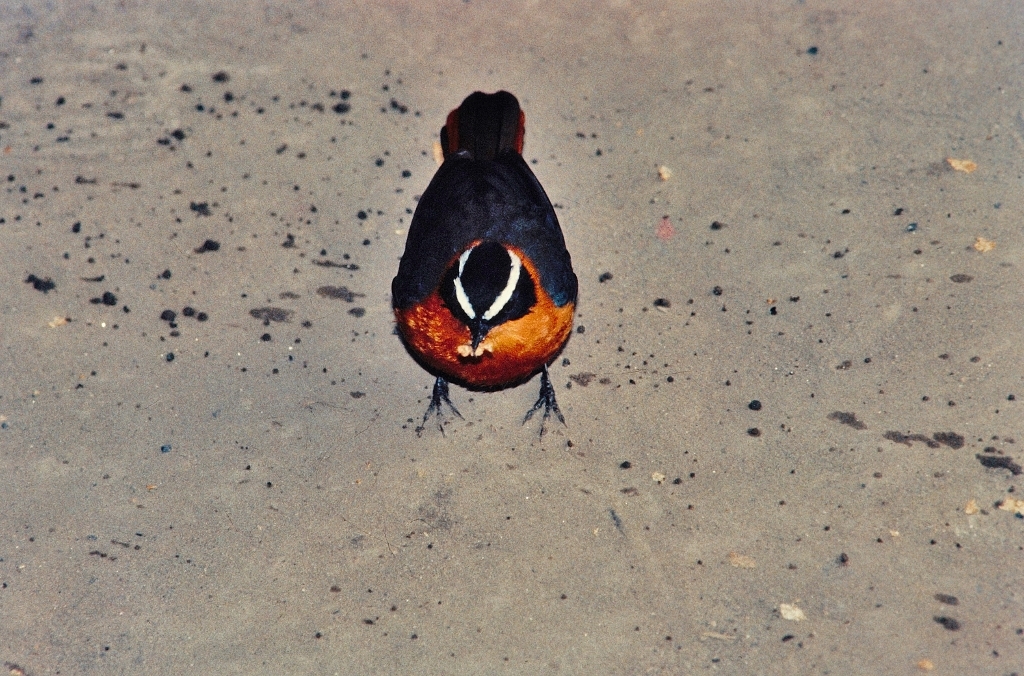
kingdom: Animalia
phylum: Chordata
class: Aves
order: Passeriformes
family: Muscicapidae
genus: Cossypha
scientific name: Cossypha heuglini
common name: White-browed robin-chat
